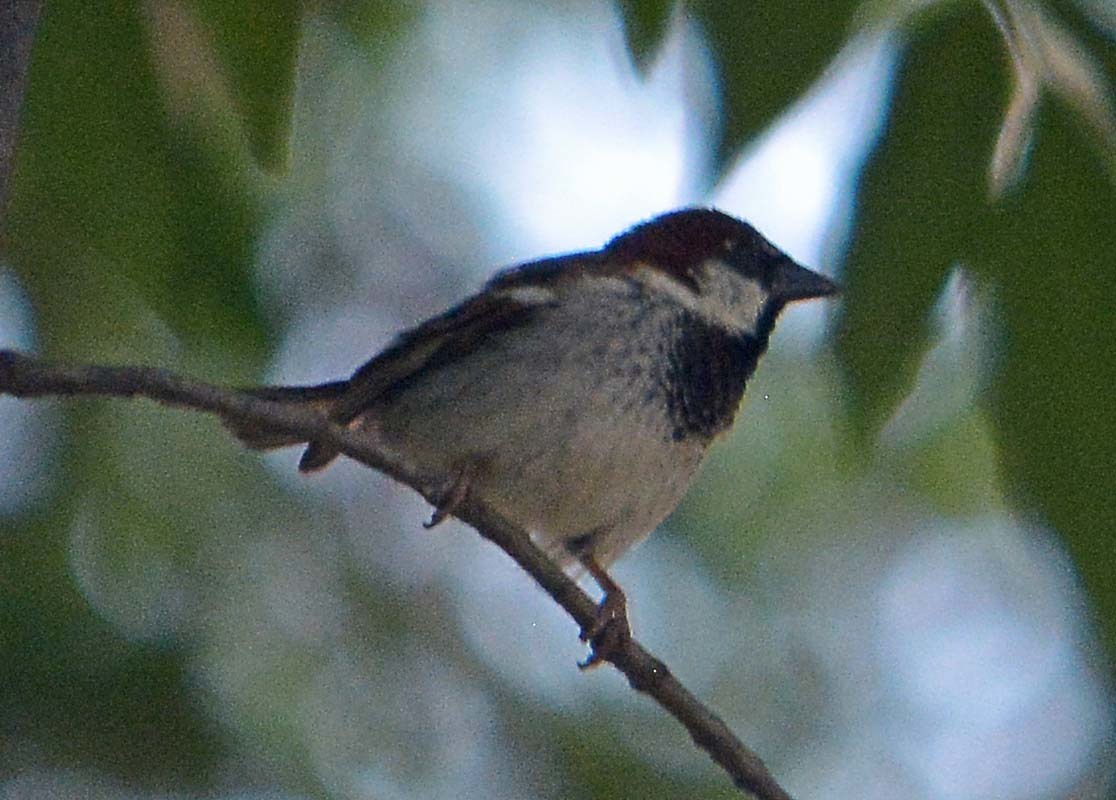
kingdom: Animalia
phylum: Chordata
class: Aves
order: Passeriformes
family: Passeridae
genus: Passer
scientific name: Passer domesticus
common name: House sparrow
